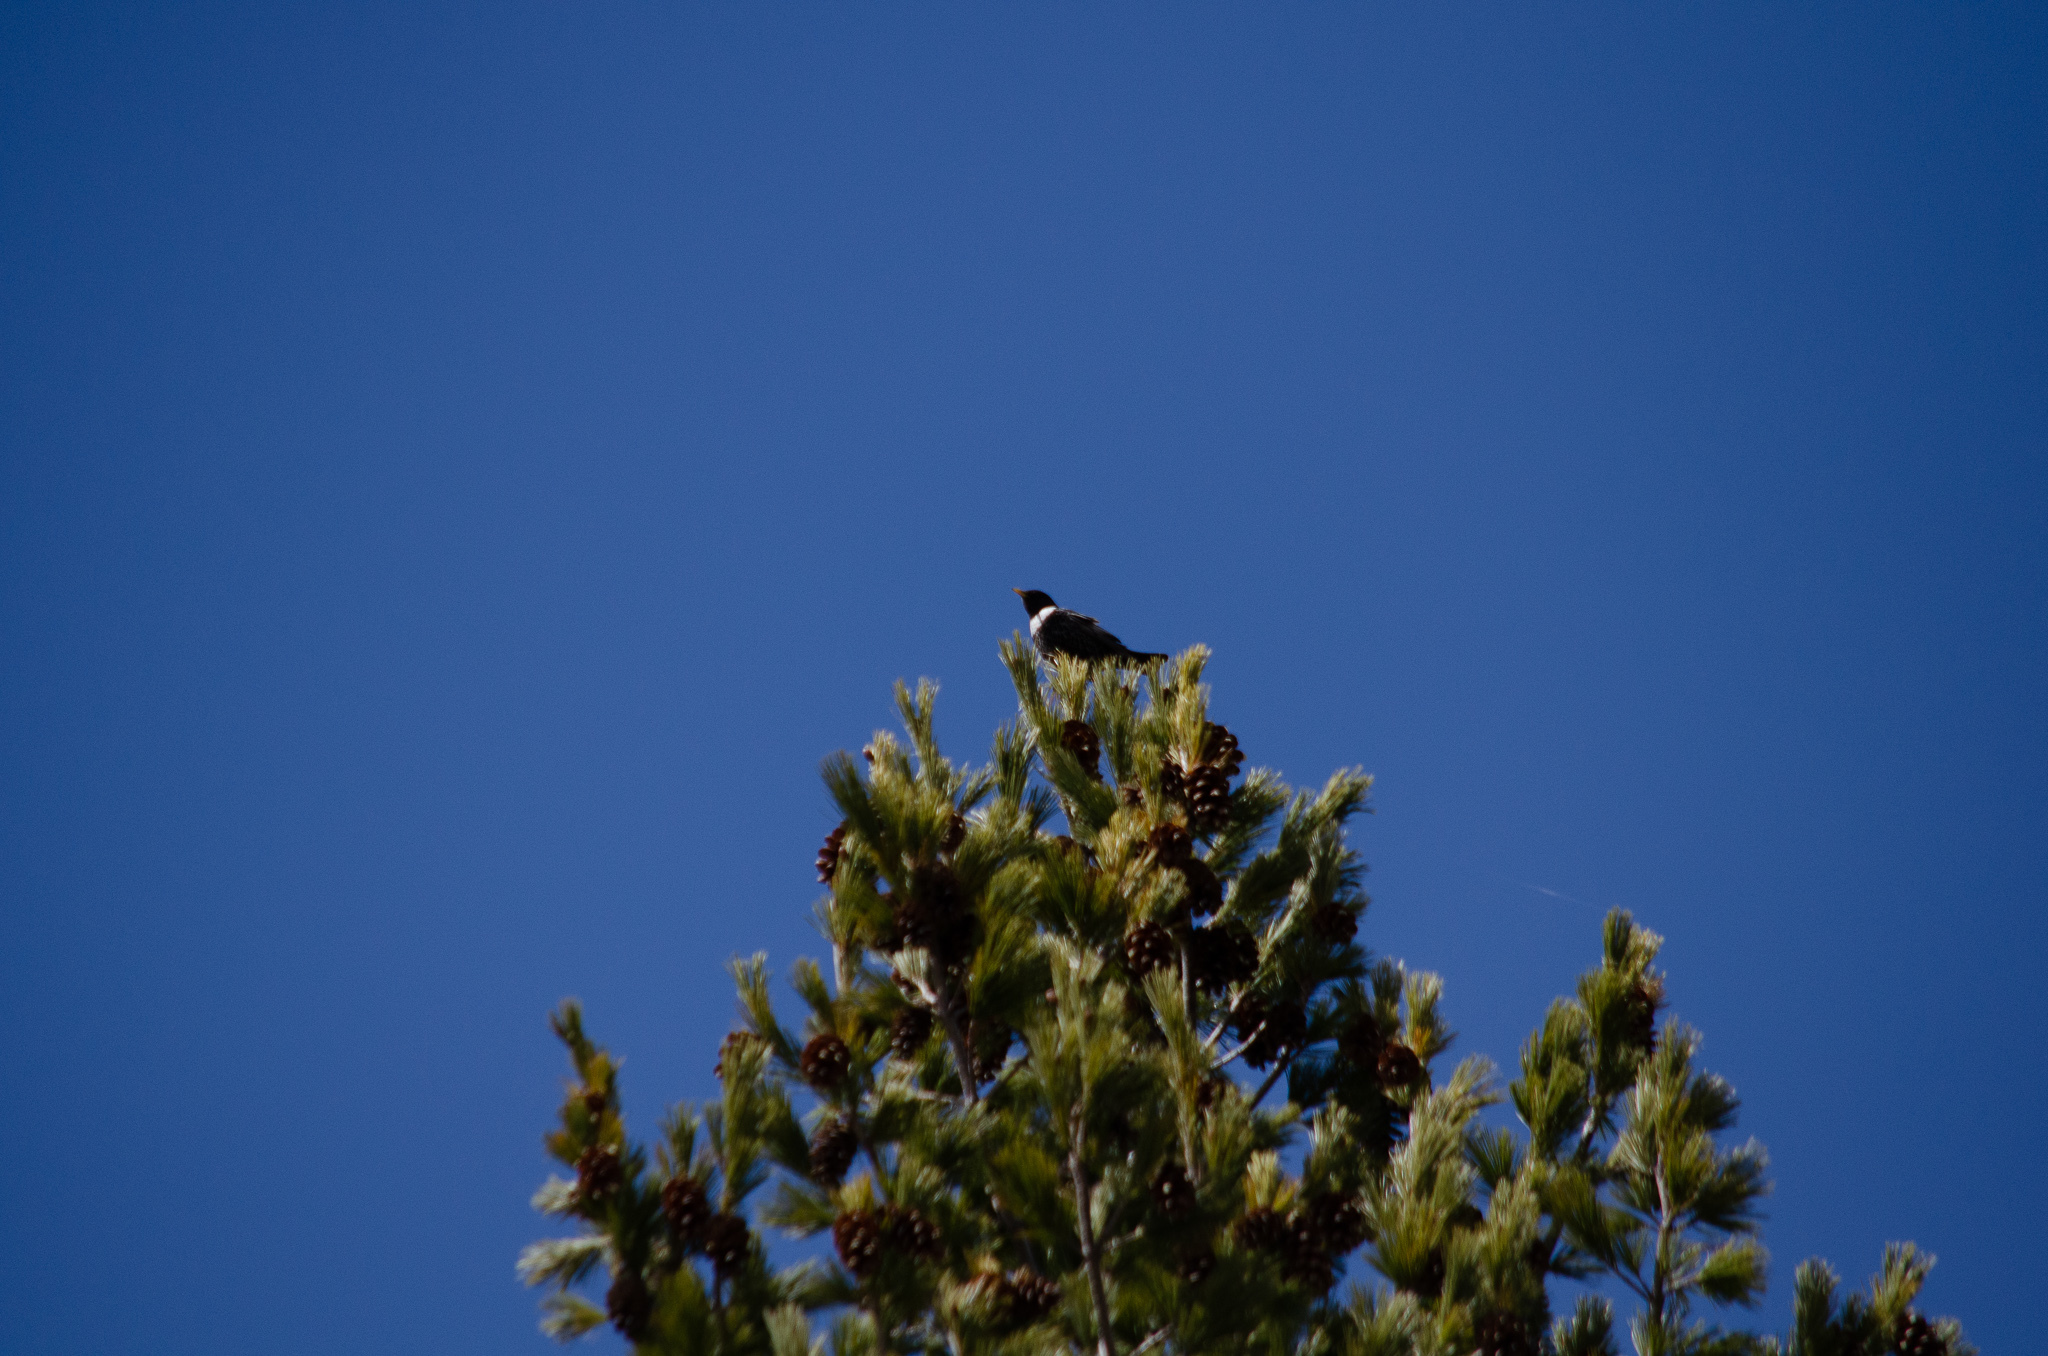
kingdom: Animalia
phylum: Chordata
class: Aves
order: Passeriformes
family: Turdidae
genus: Turdus
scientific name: Turdus torquatus
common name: Ring ouzel
